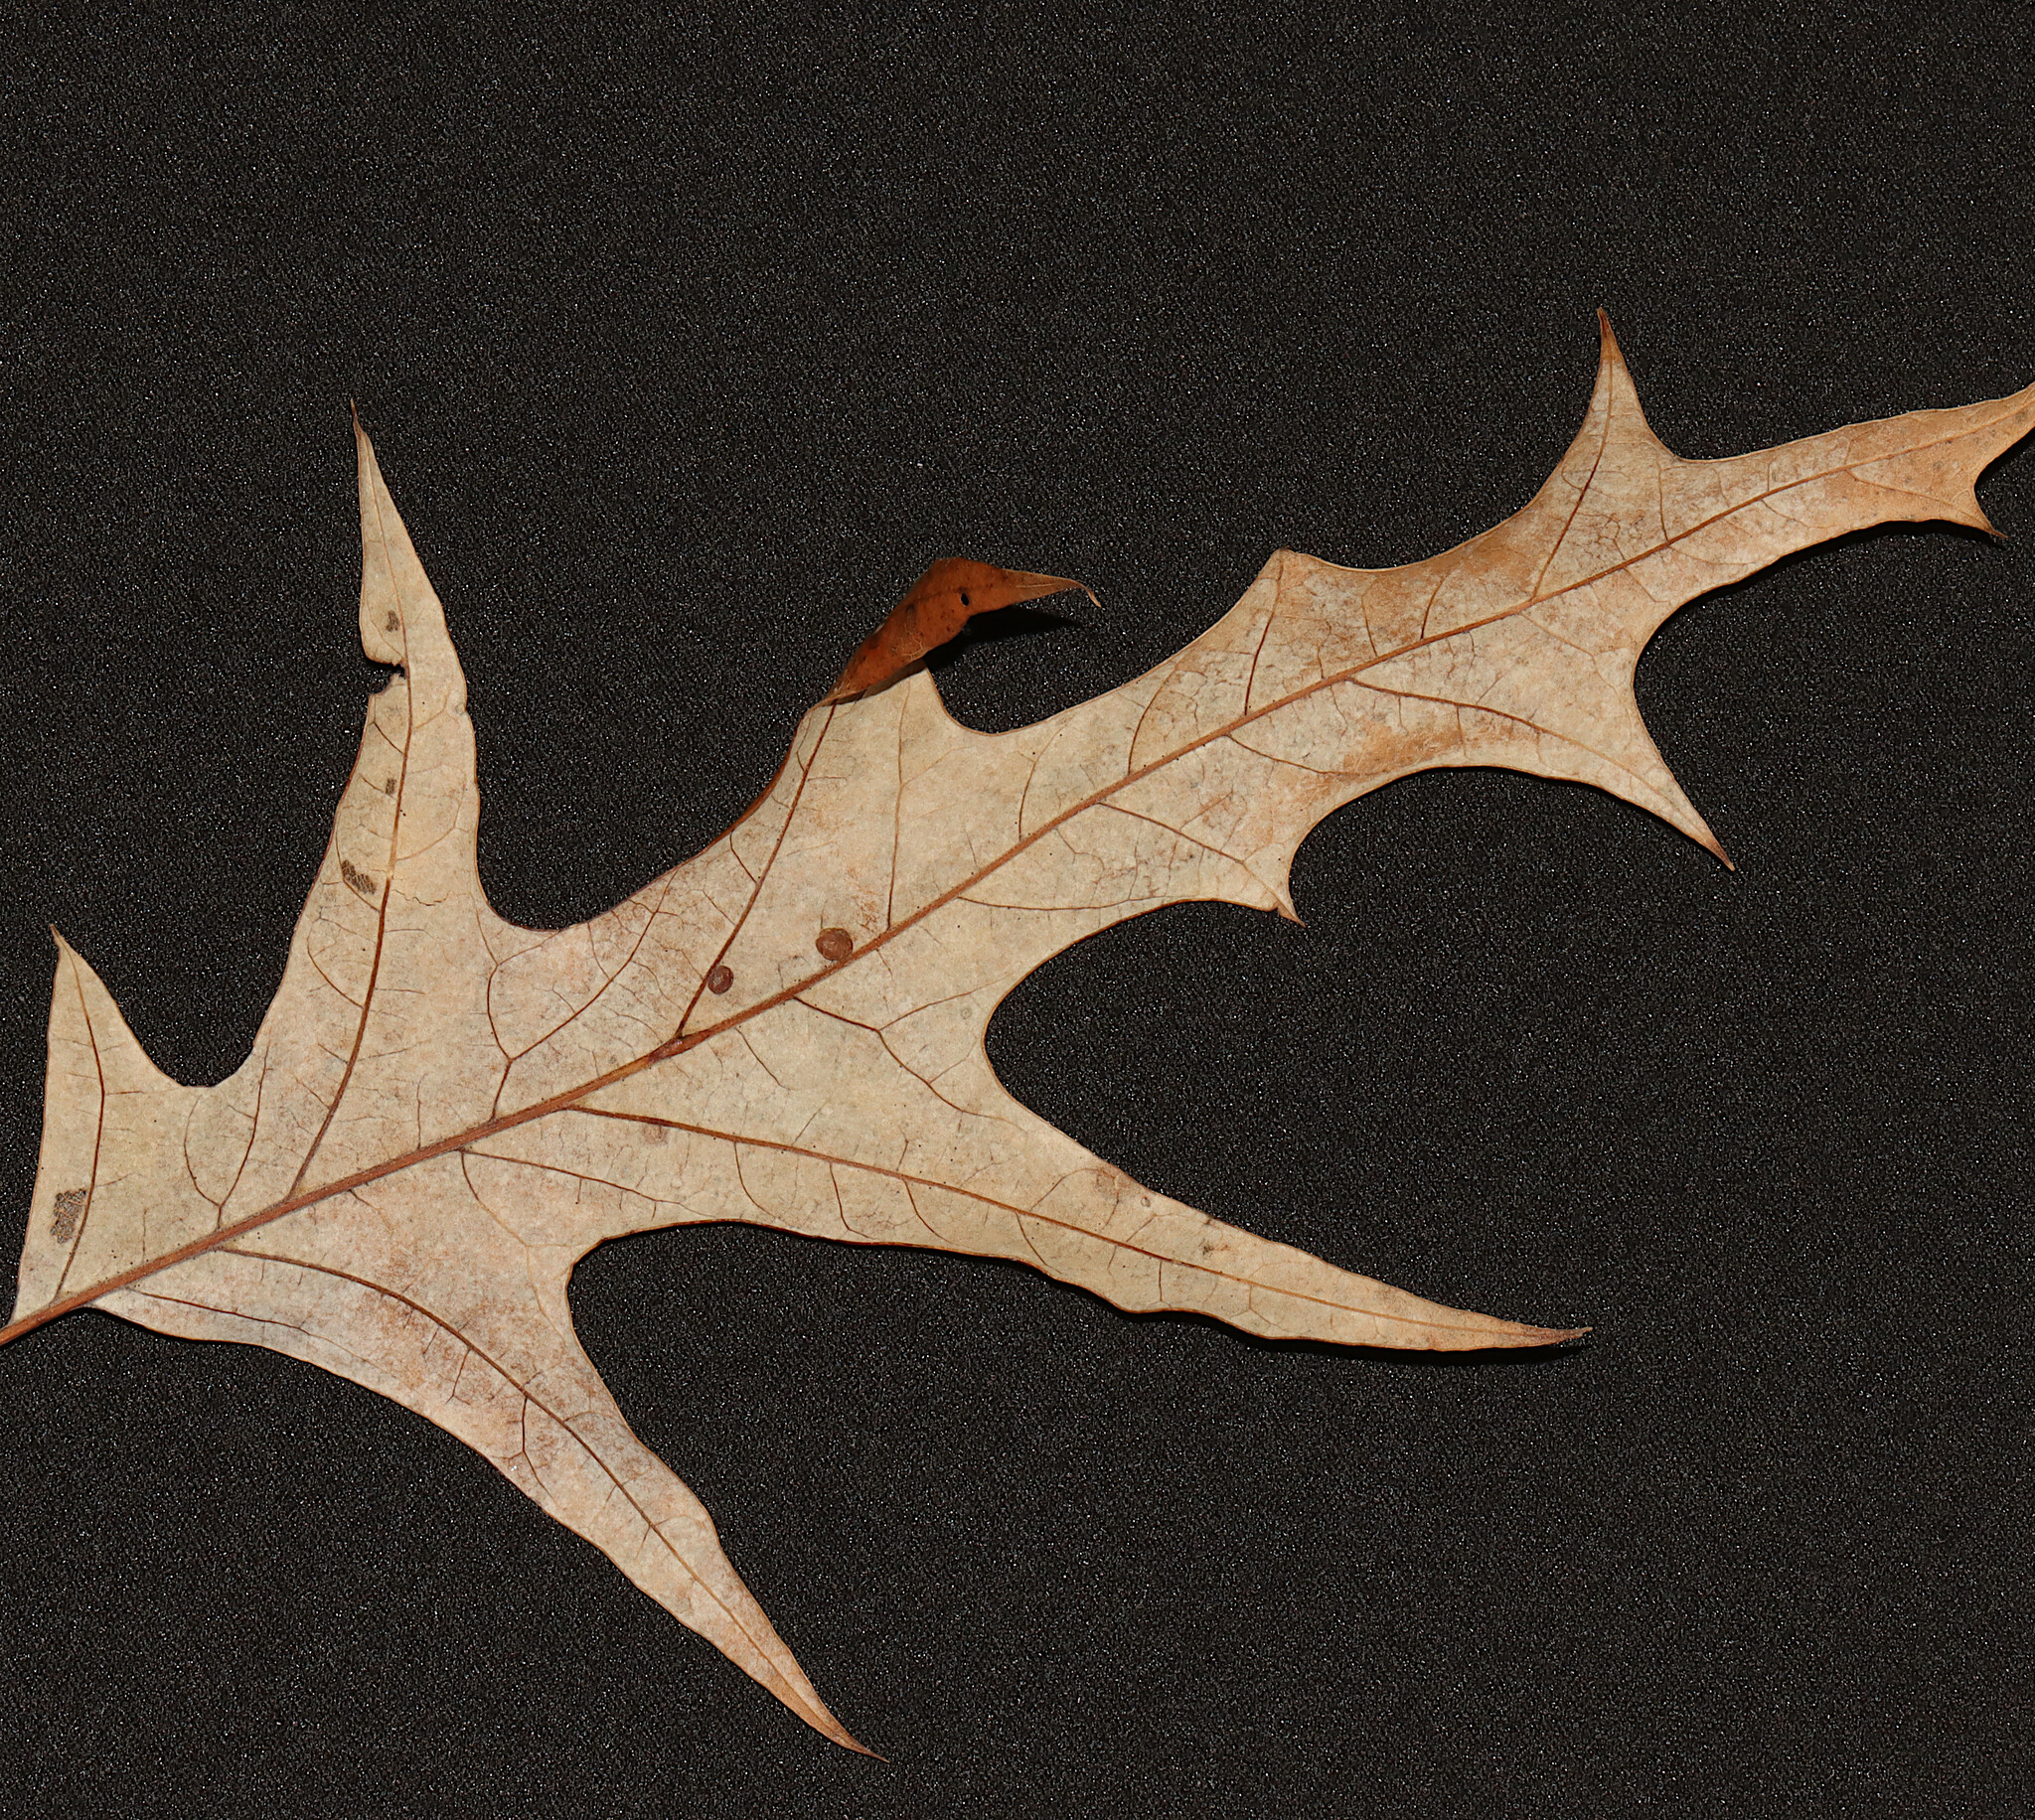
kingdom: Plantae
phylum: Tracheophyta
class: Magnoliopsida
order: Fagales
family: Fagaceae
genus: Quercus
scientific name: Quercus falcata
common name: Southern red oak
